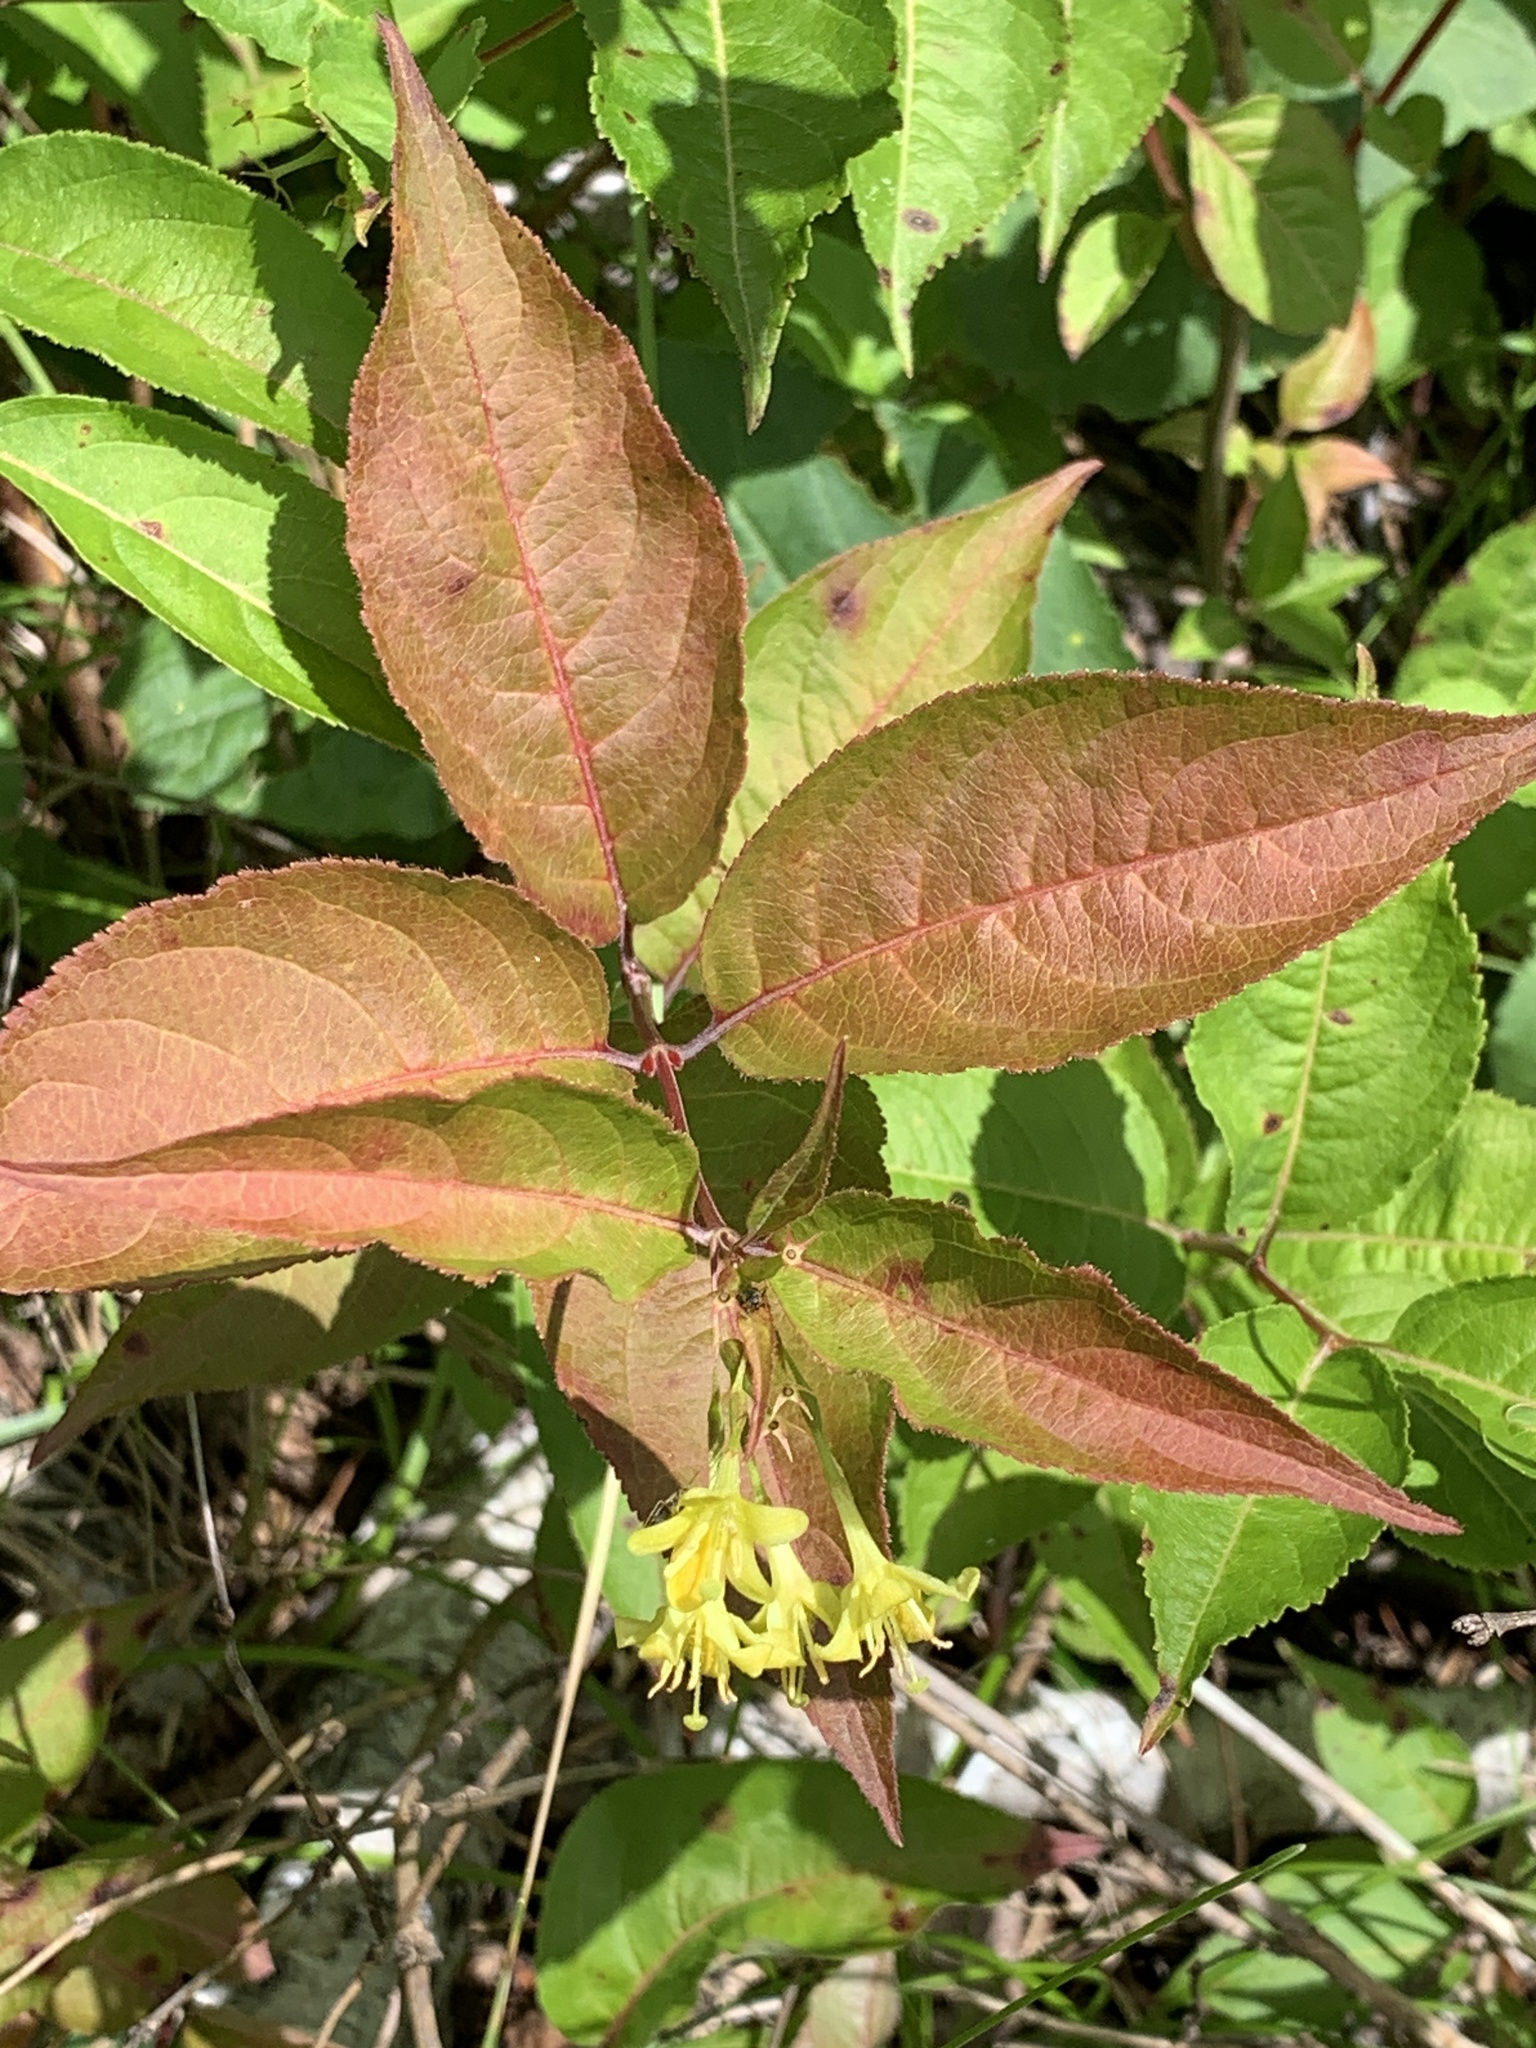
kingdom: Plantae
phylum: Tracheophyta
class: Magnoliopsida
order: Dipsacales
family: Caprifoliaceae
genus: Diervilla
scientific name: Diervilla lonicera
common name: Bush-honeysuckle
